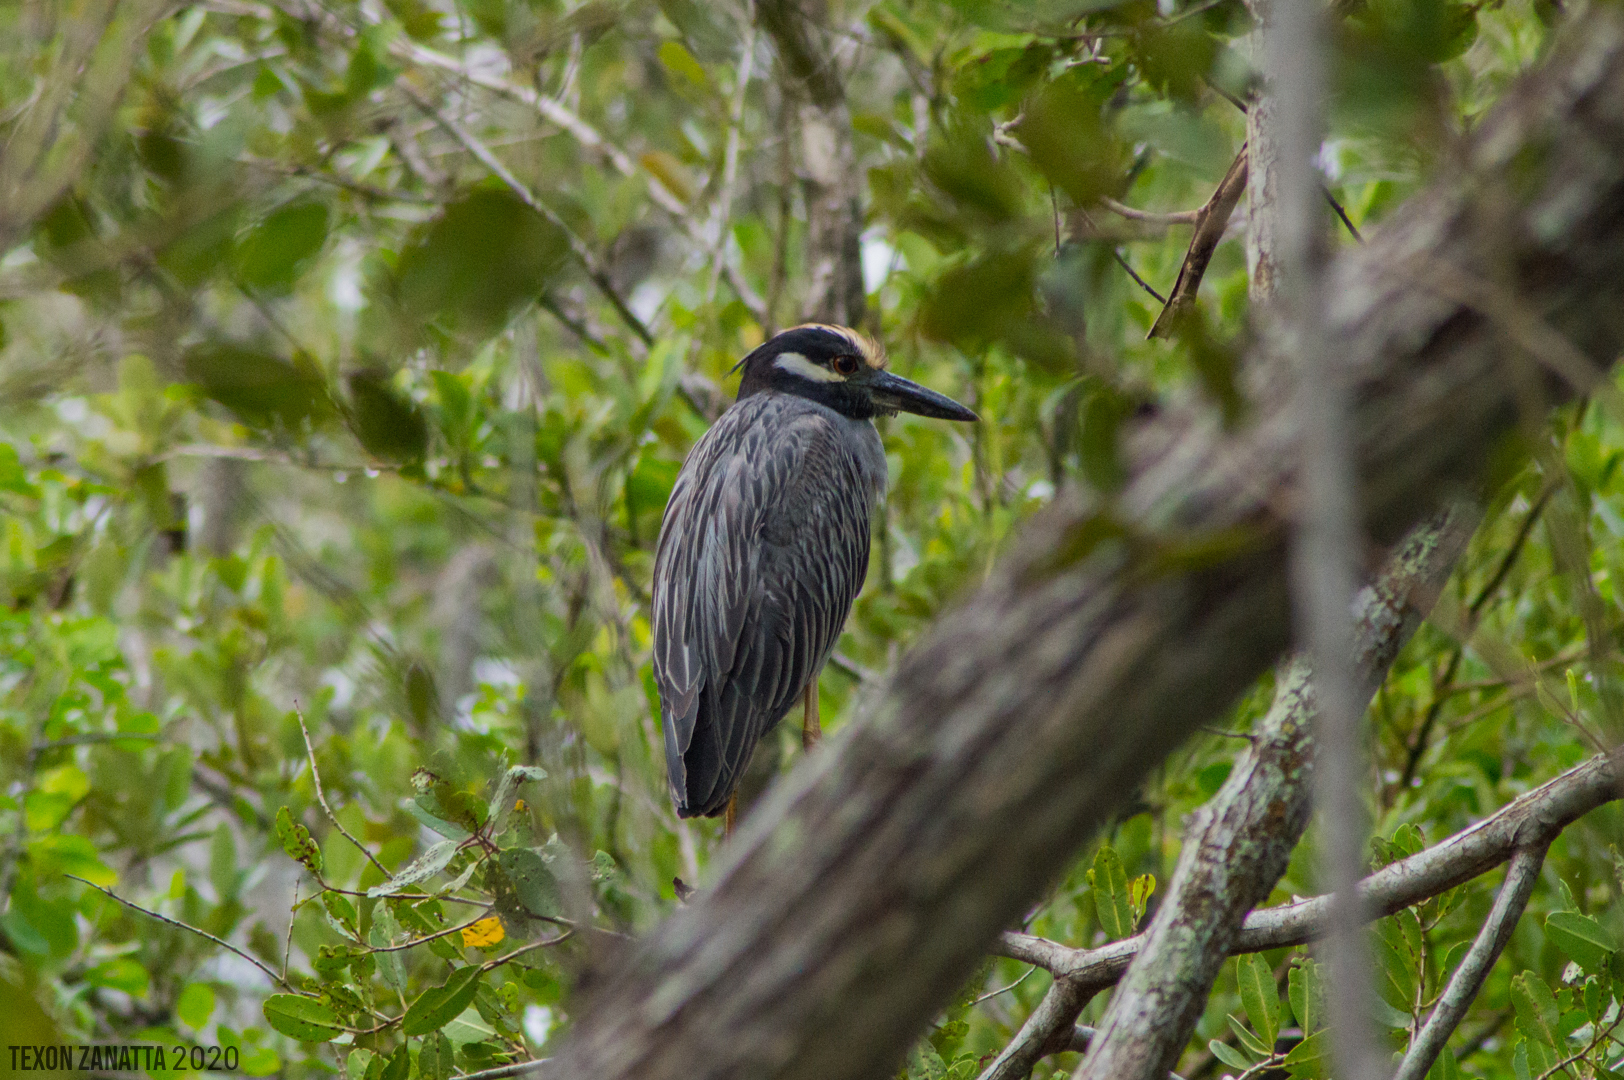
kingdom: Animalia
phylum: Chordata
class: Aves
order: Pelecaniformes
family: Ardeidae
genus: Nyctanassa
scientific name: Nyctanassa violacea
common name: Yellow-crowned night heron
